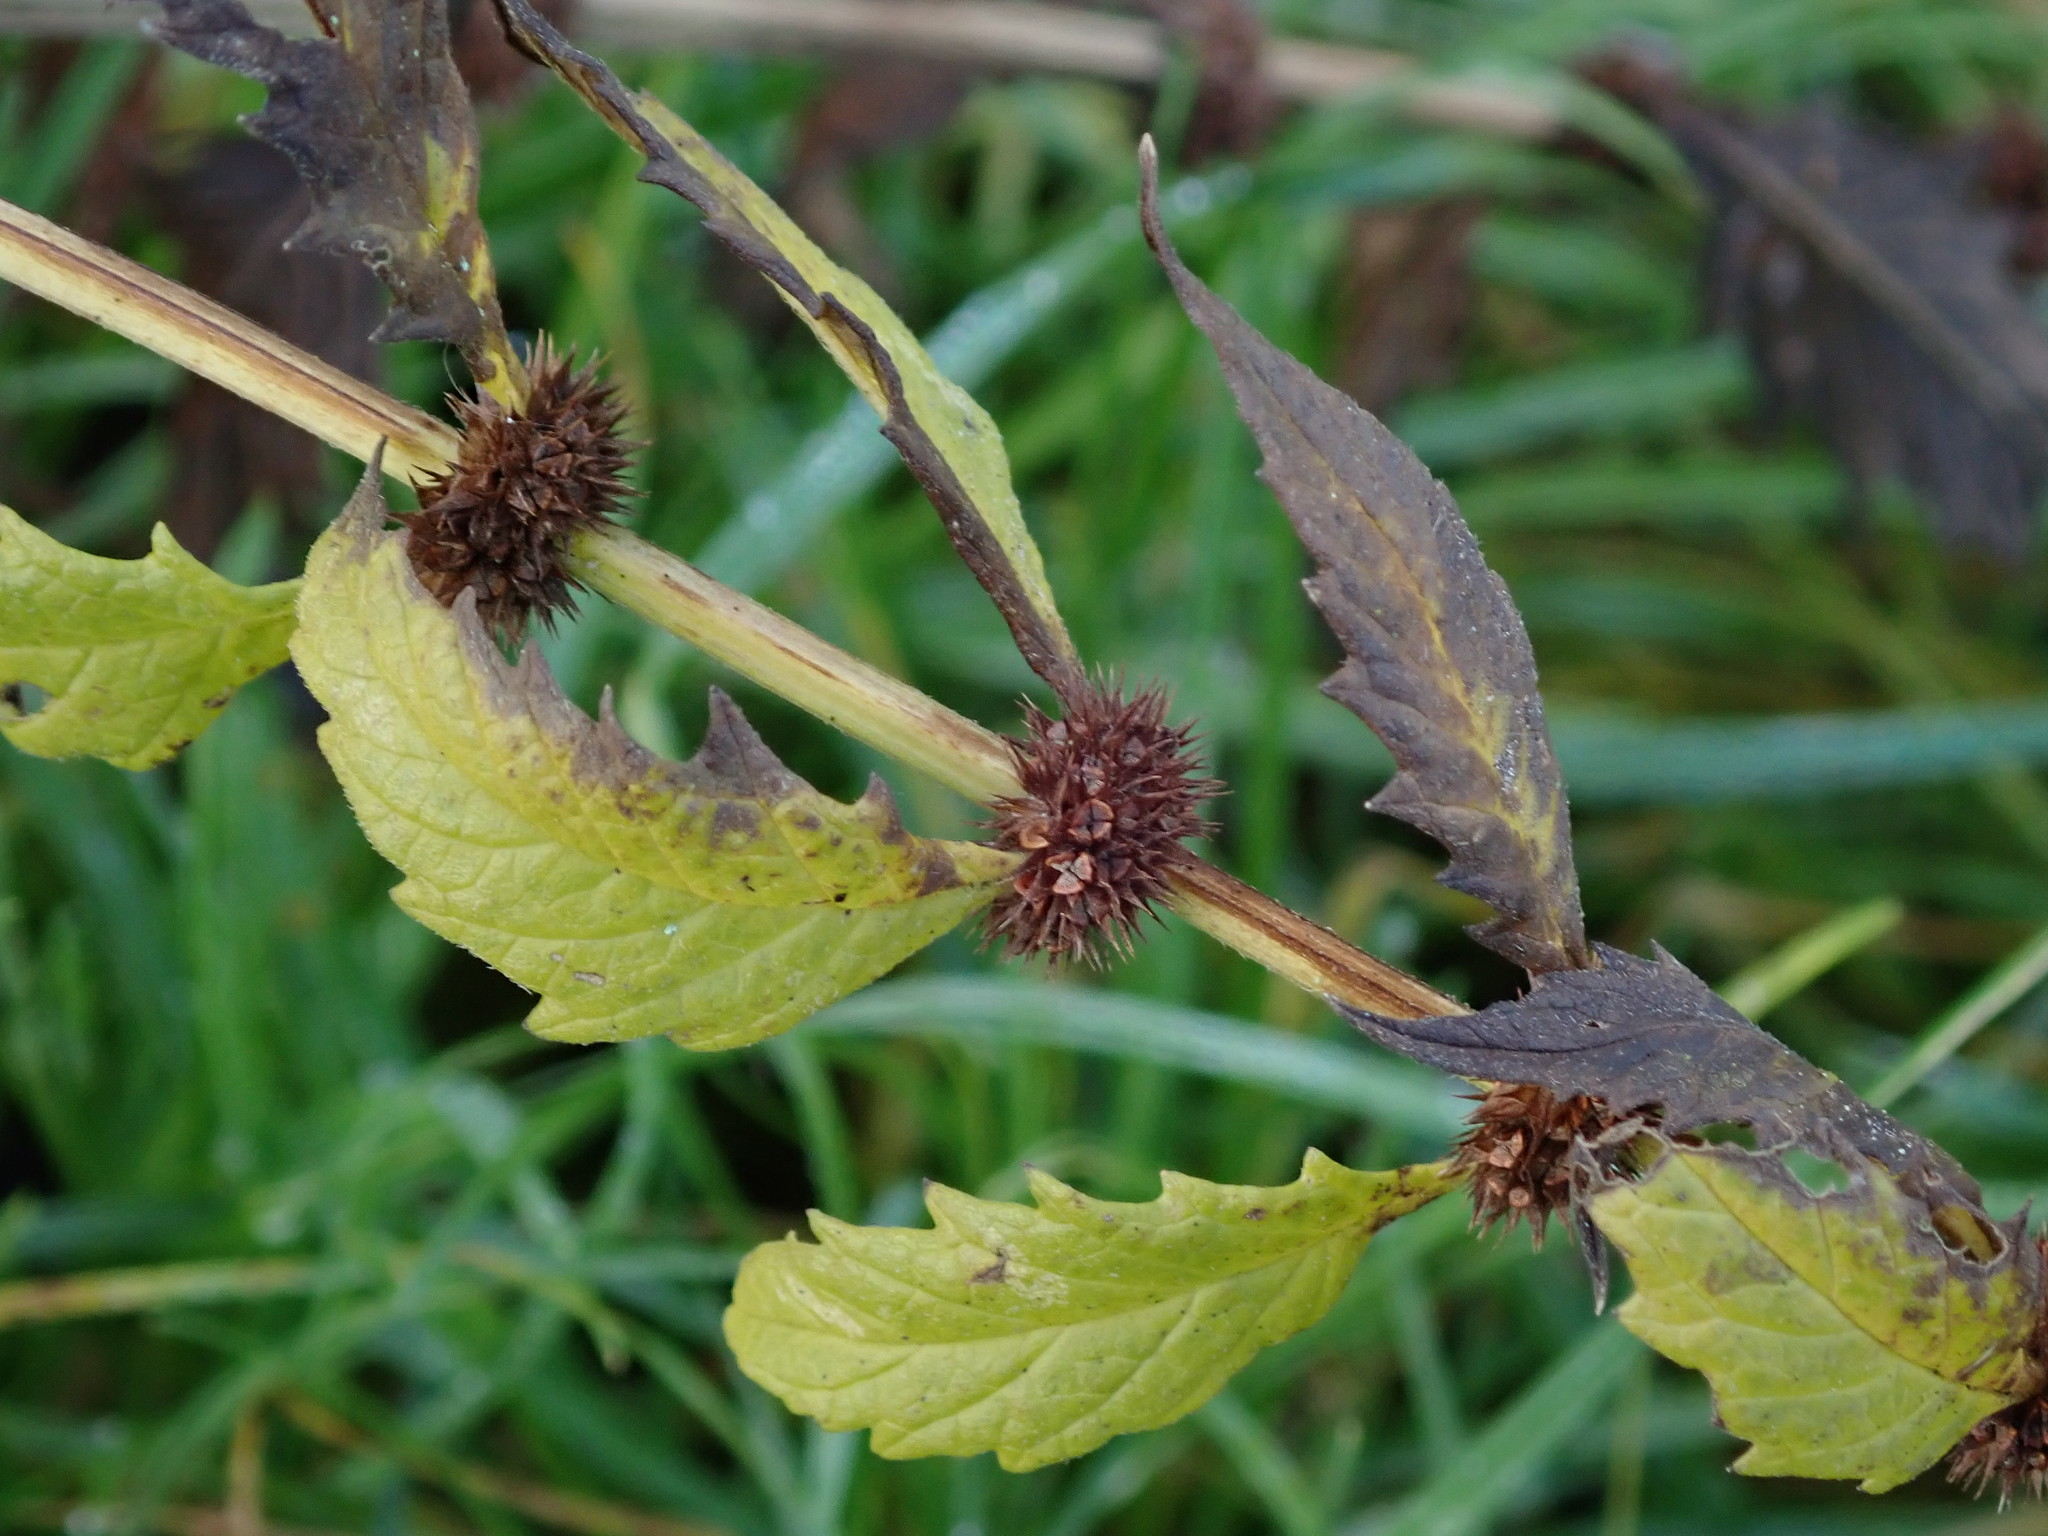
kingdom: Plantae
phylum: Tracheophyta
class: Magnoliopsida
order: Lamiales
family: Lamiaceae
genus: Lycopus
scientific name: Lycopus europaeus
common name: European bugleweed
